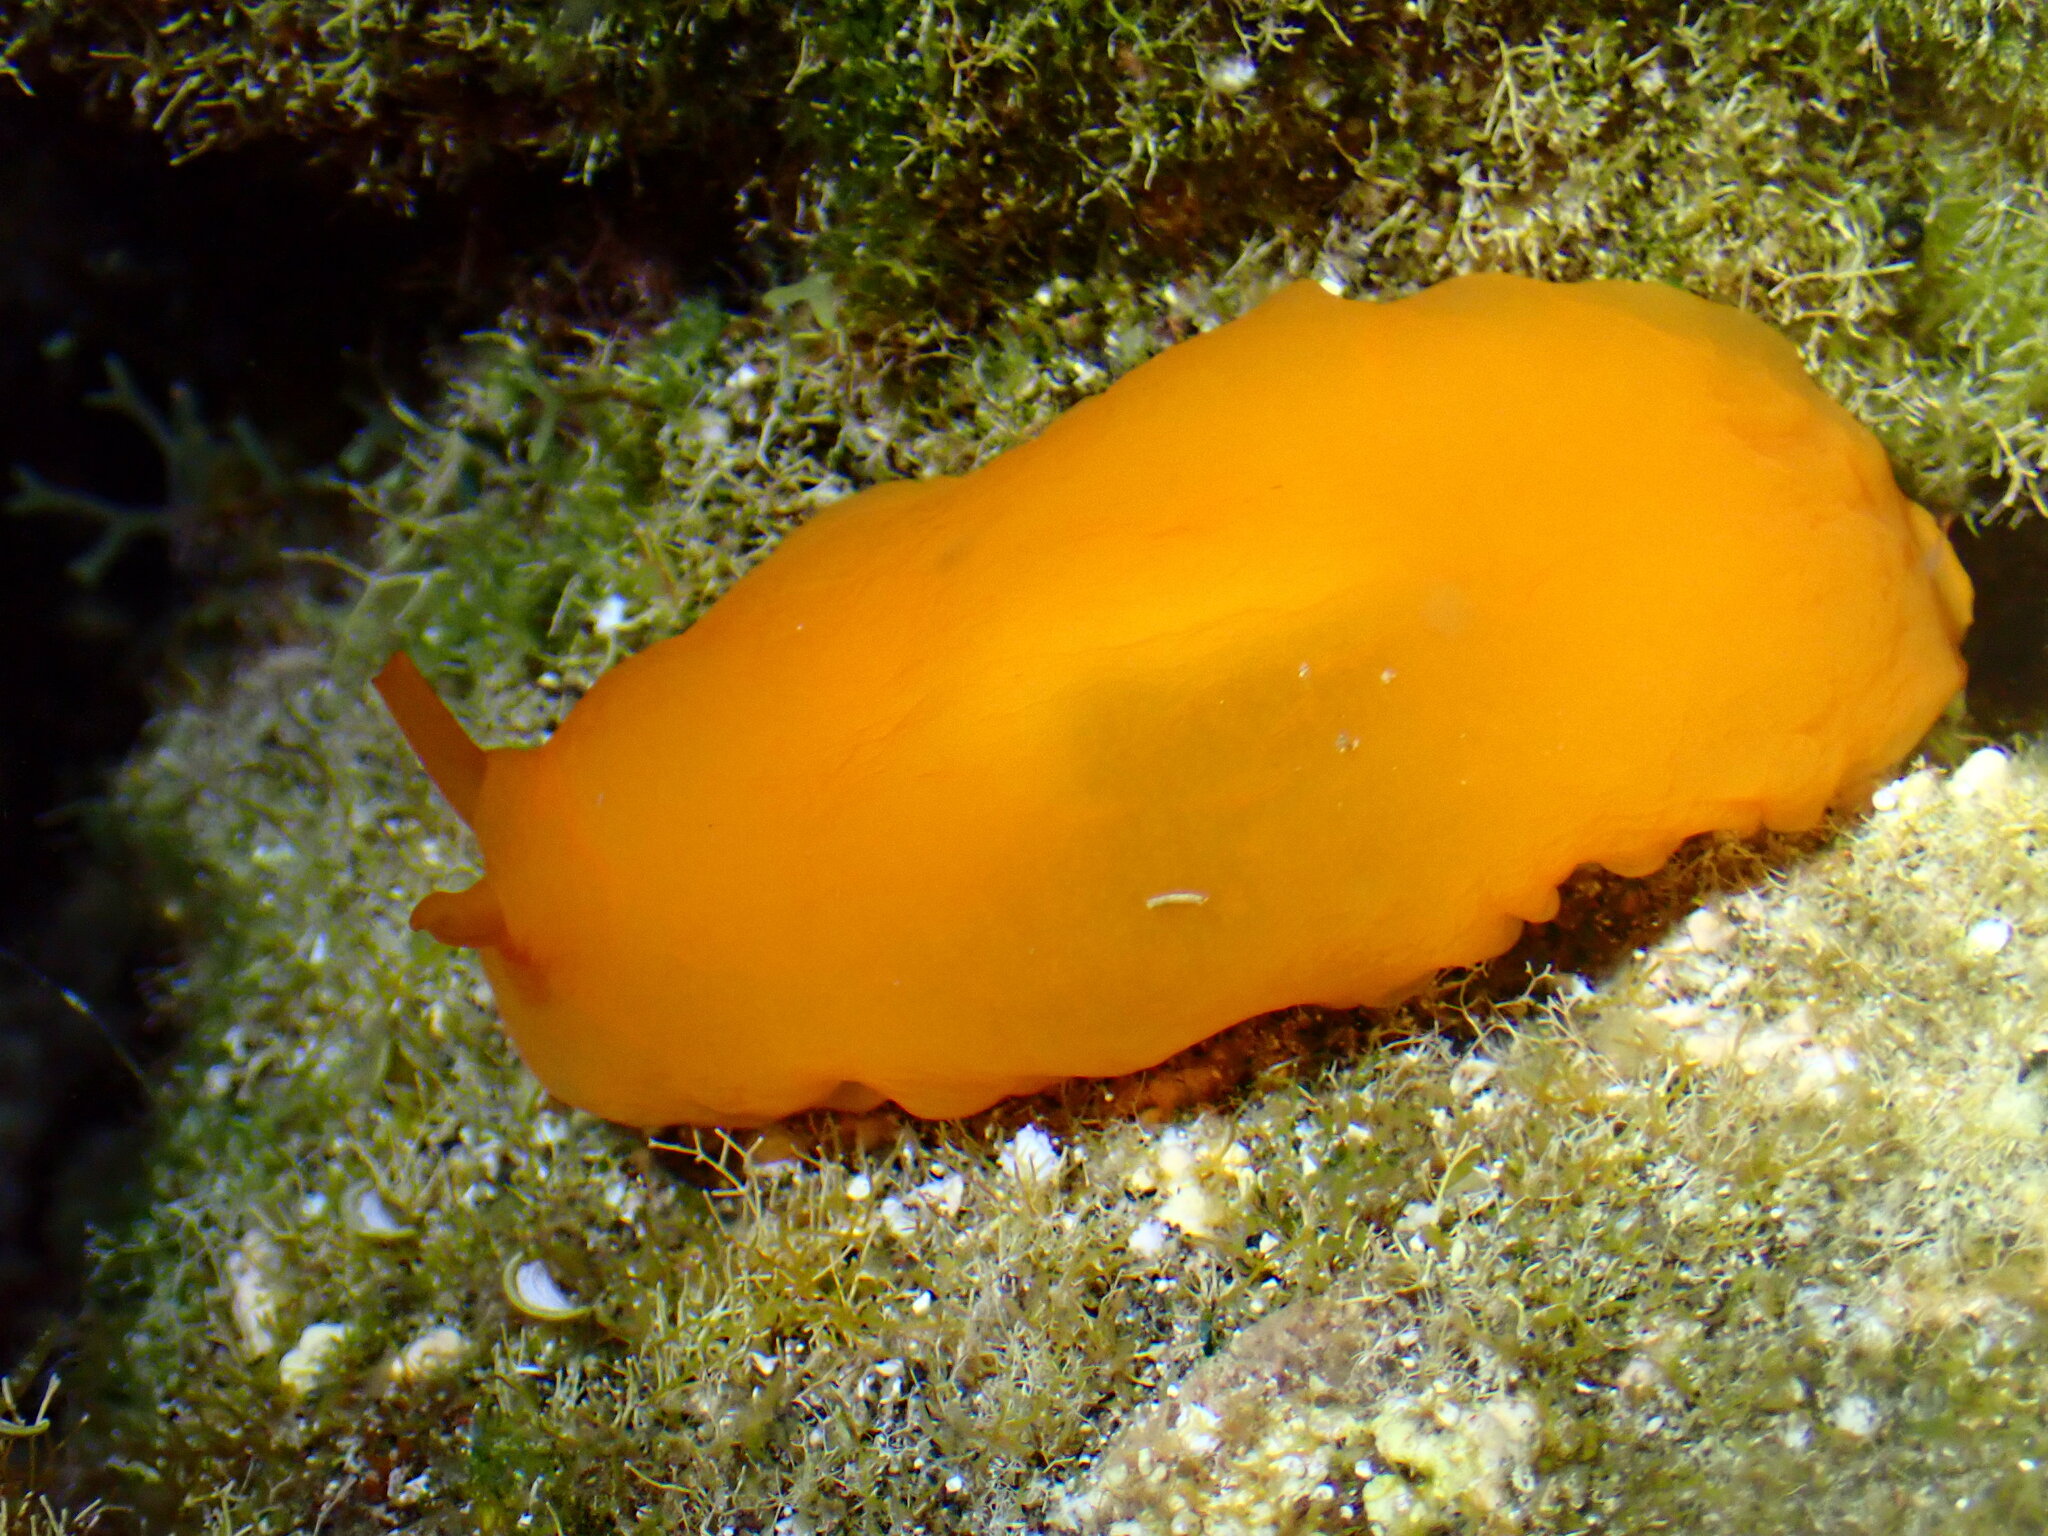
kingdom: Animalia
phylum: Mollusca
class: Gastropoda
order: Pleurobranchida
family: Pleurobranchidae
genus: Berthellina
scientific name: Berthellina edwardsii
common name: Peach seaslug
